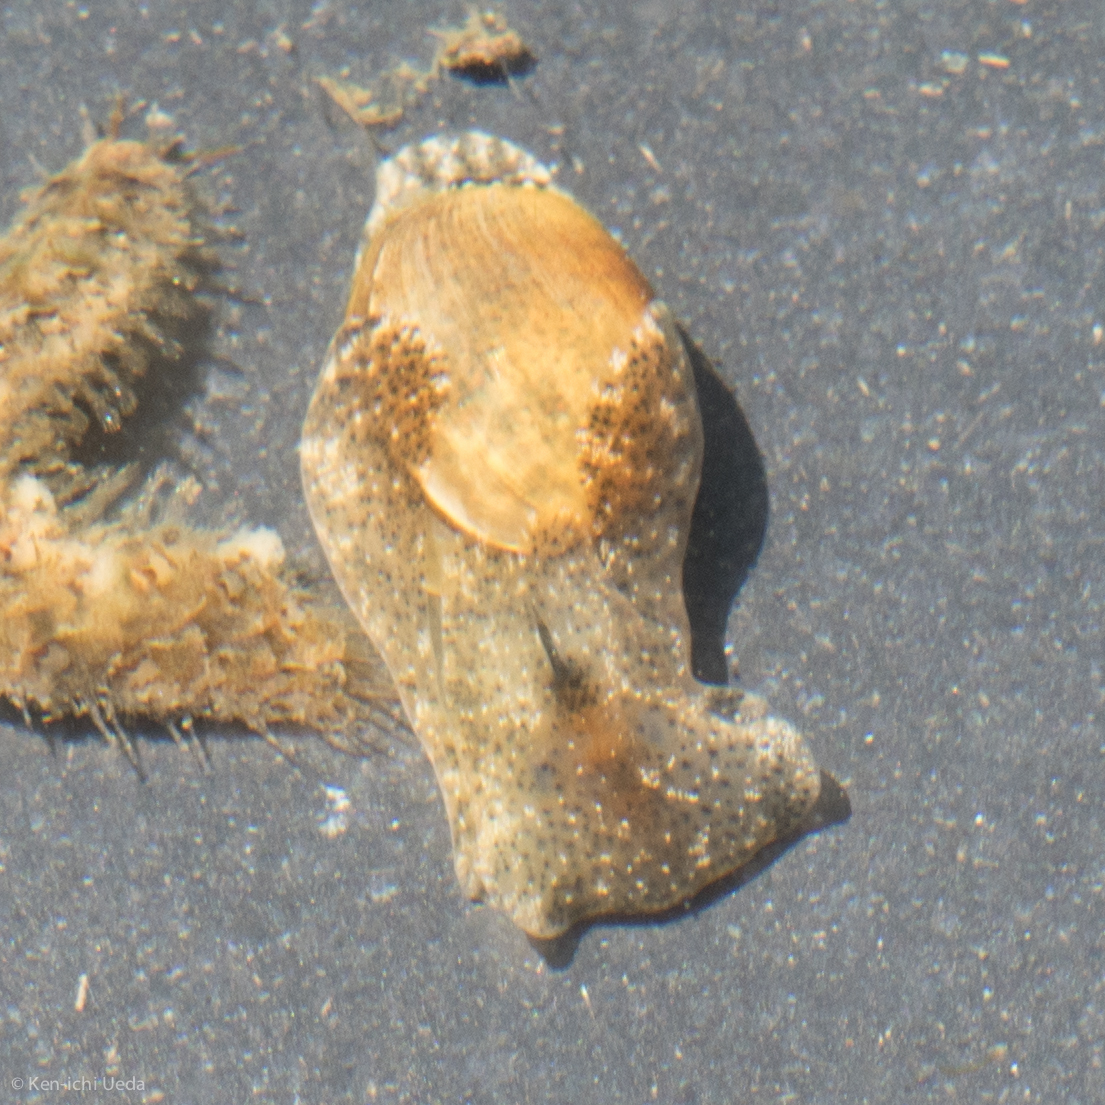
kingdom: Animalia
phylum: Mollusca
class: Gastropoda
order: Cephalaspidea
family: Haminoeidae
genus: Haloa
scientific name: Haloa japonica
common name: Japanese bubble snail
